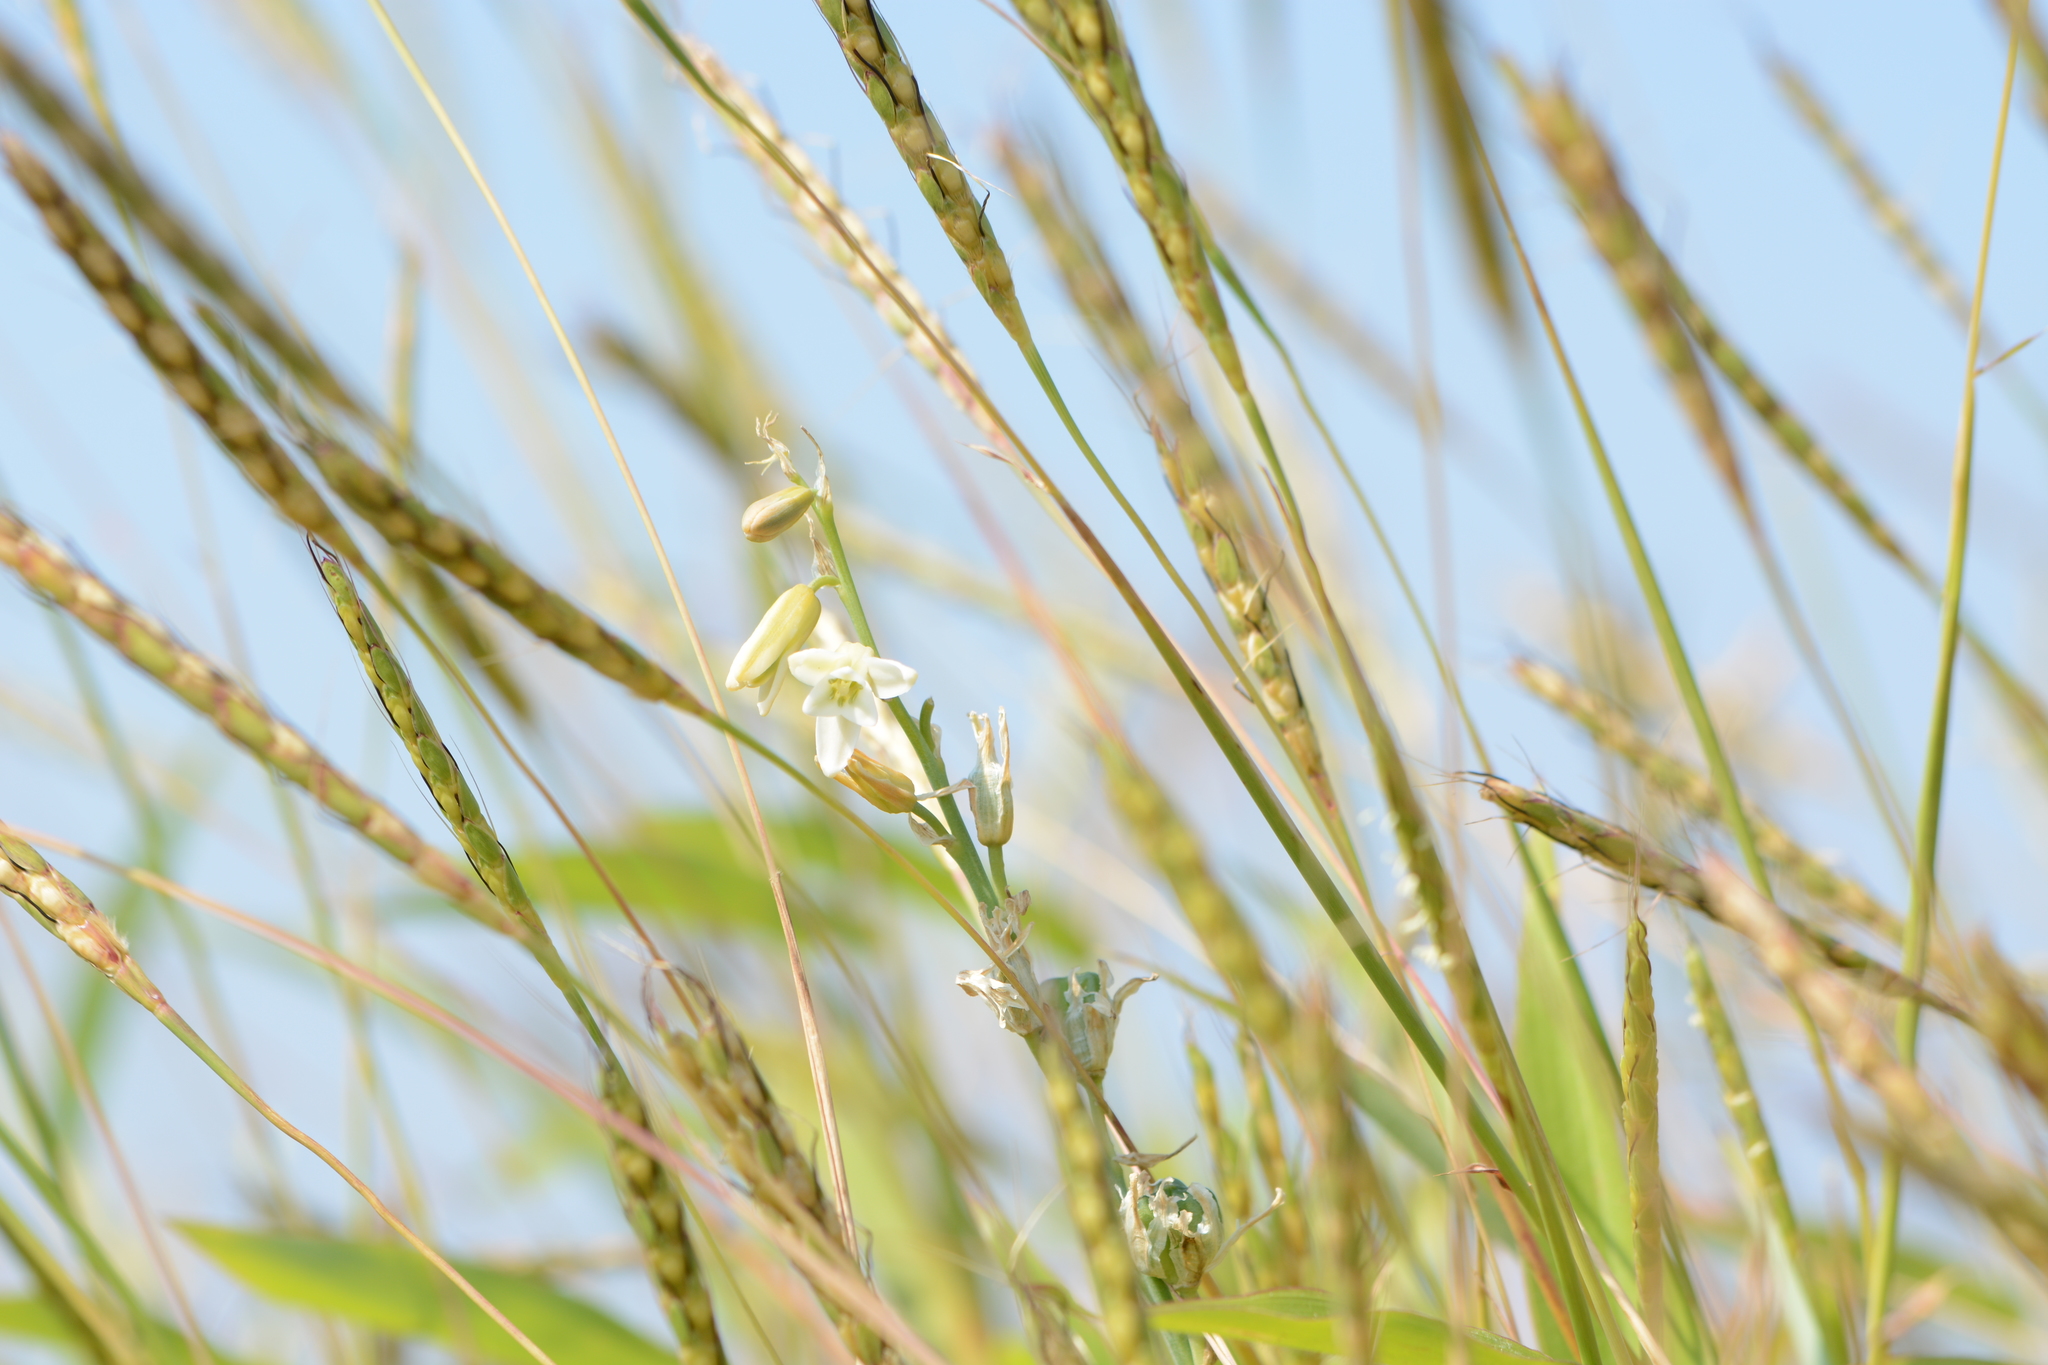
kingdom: Plantae
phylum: Tracheophyta
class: Liliopsida
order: Asparagales
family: Asparagaceae
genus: Dipcadi
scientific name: Dipcadi ursulae
